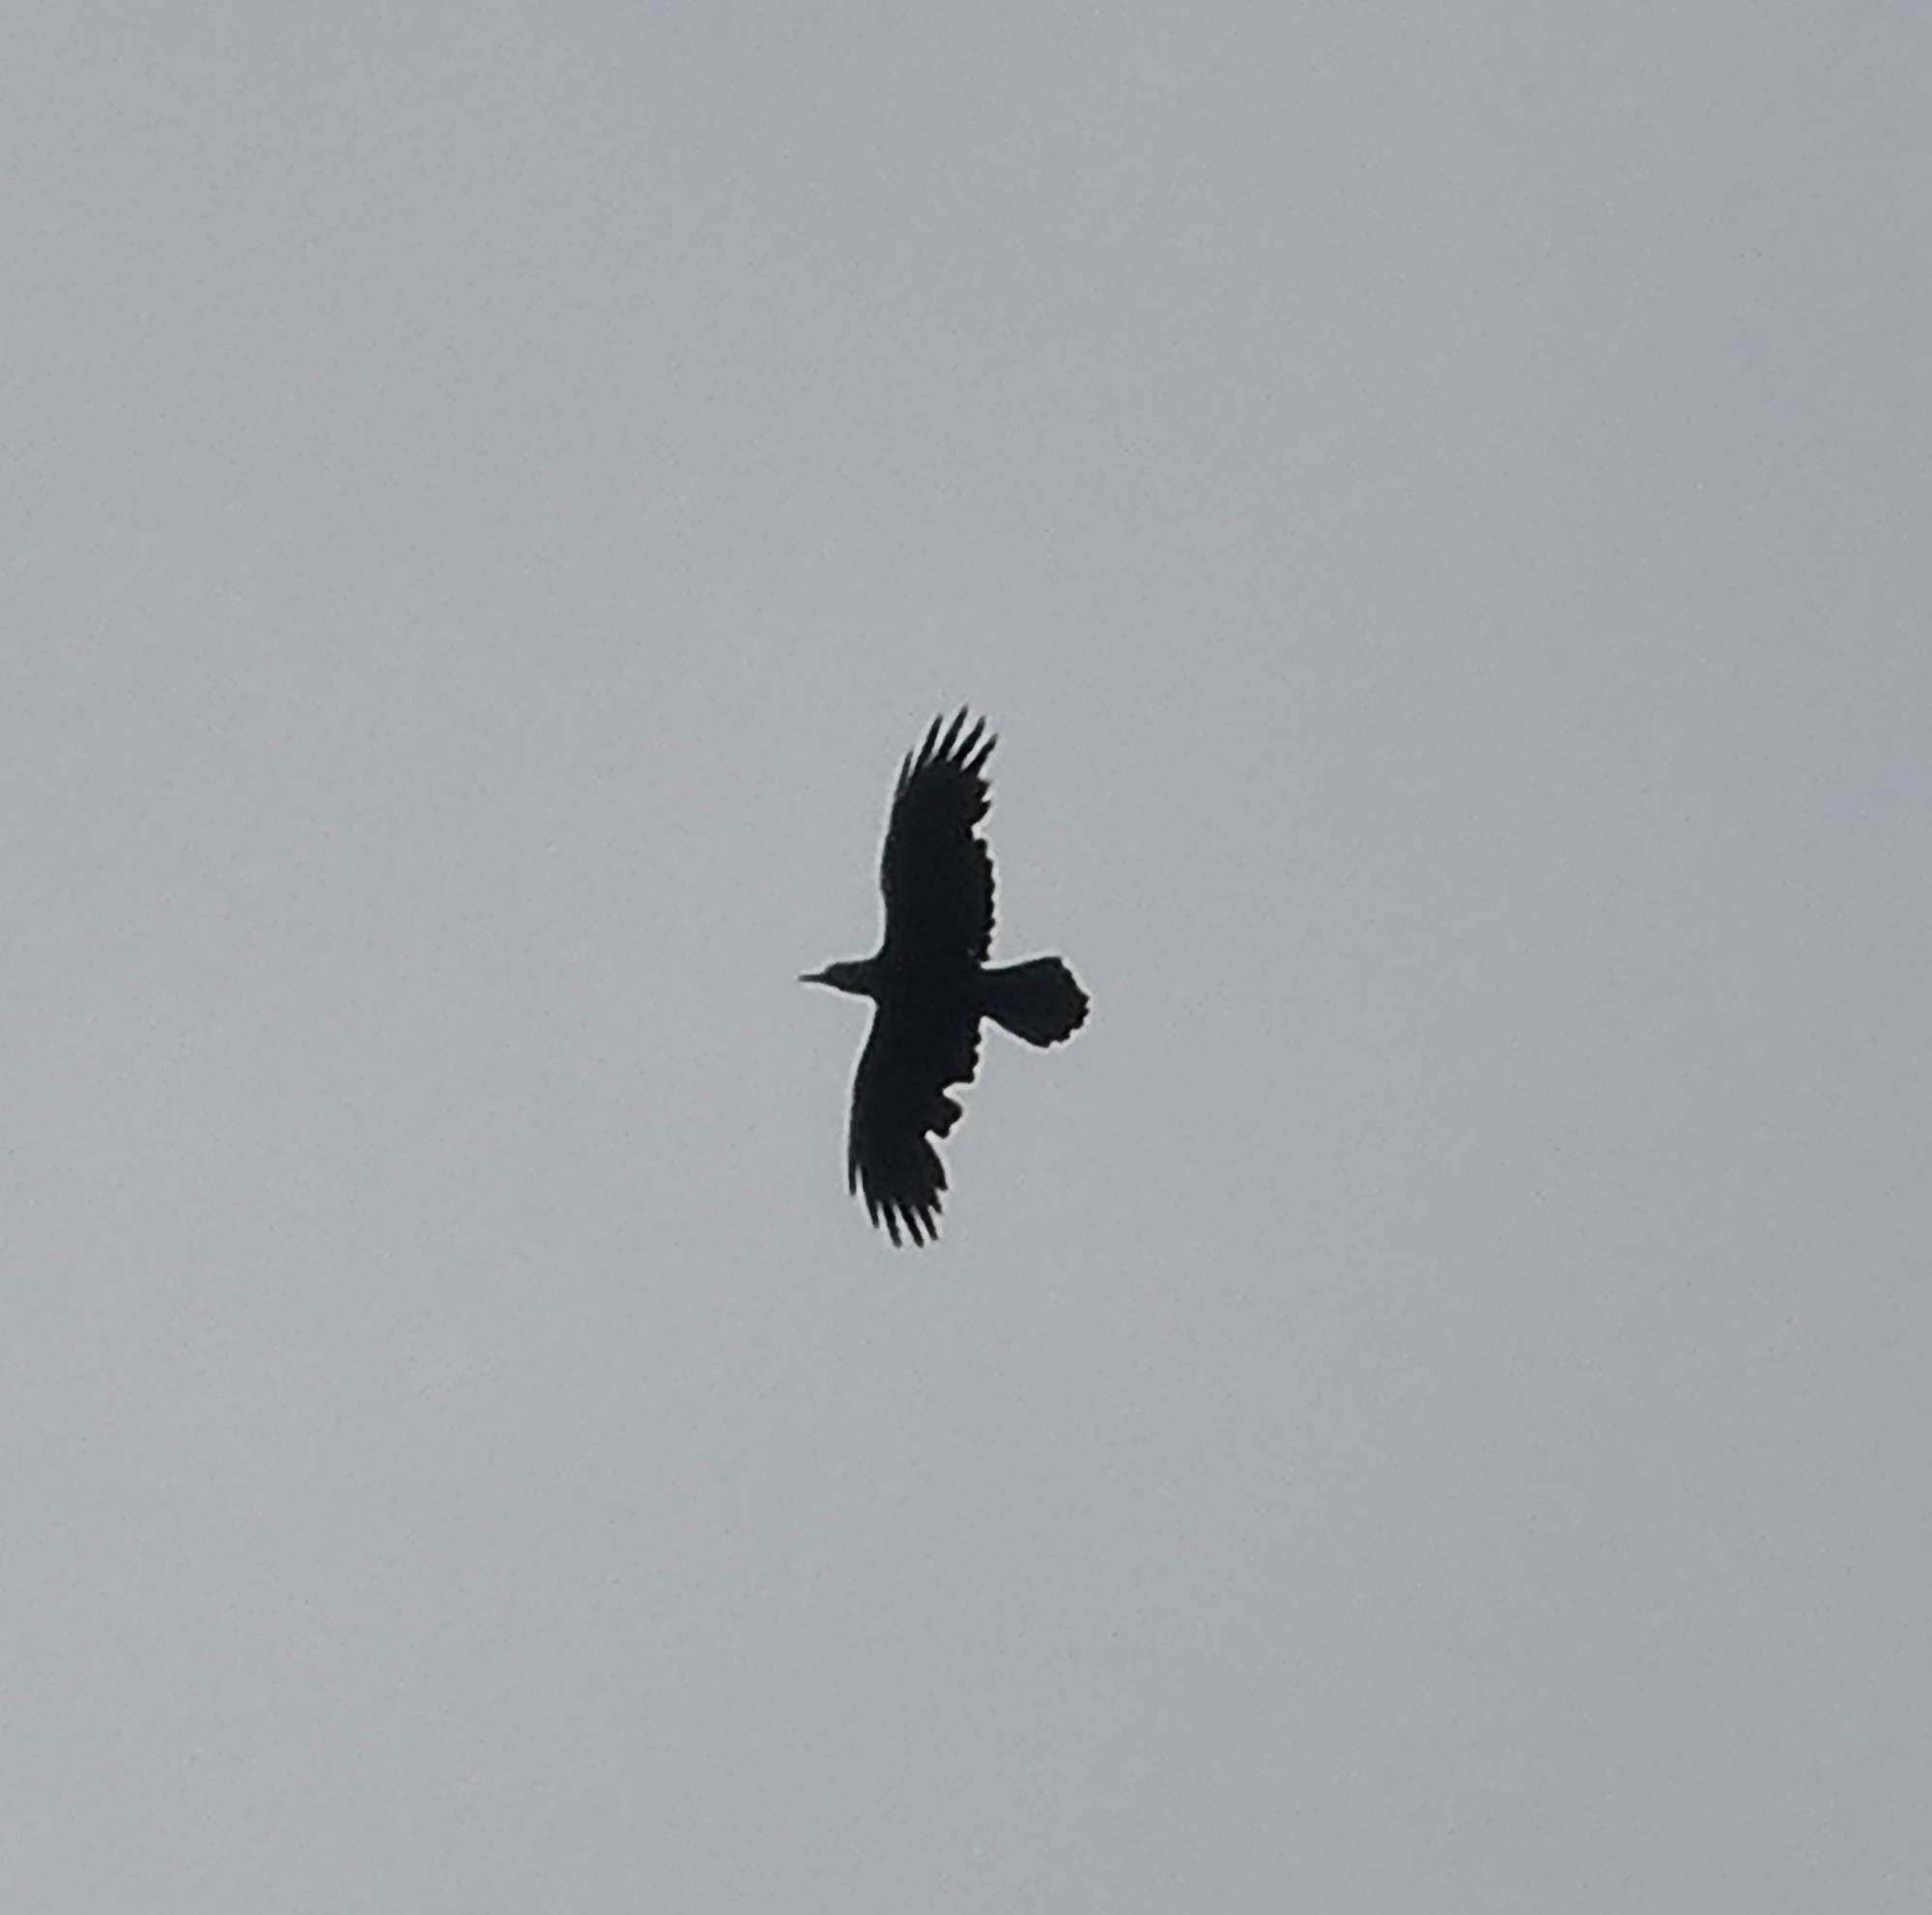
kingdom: Animalia
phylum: Chordata
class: Aves
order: Passeriformes
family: Corvidae
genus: Corvus
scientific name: Corvus corax
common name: Common raven
